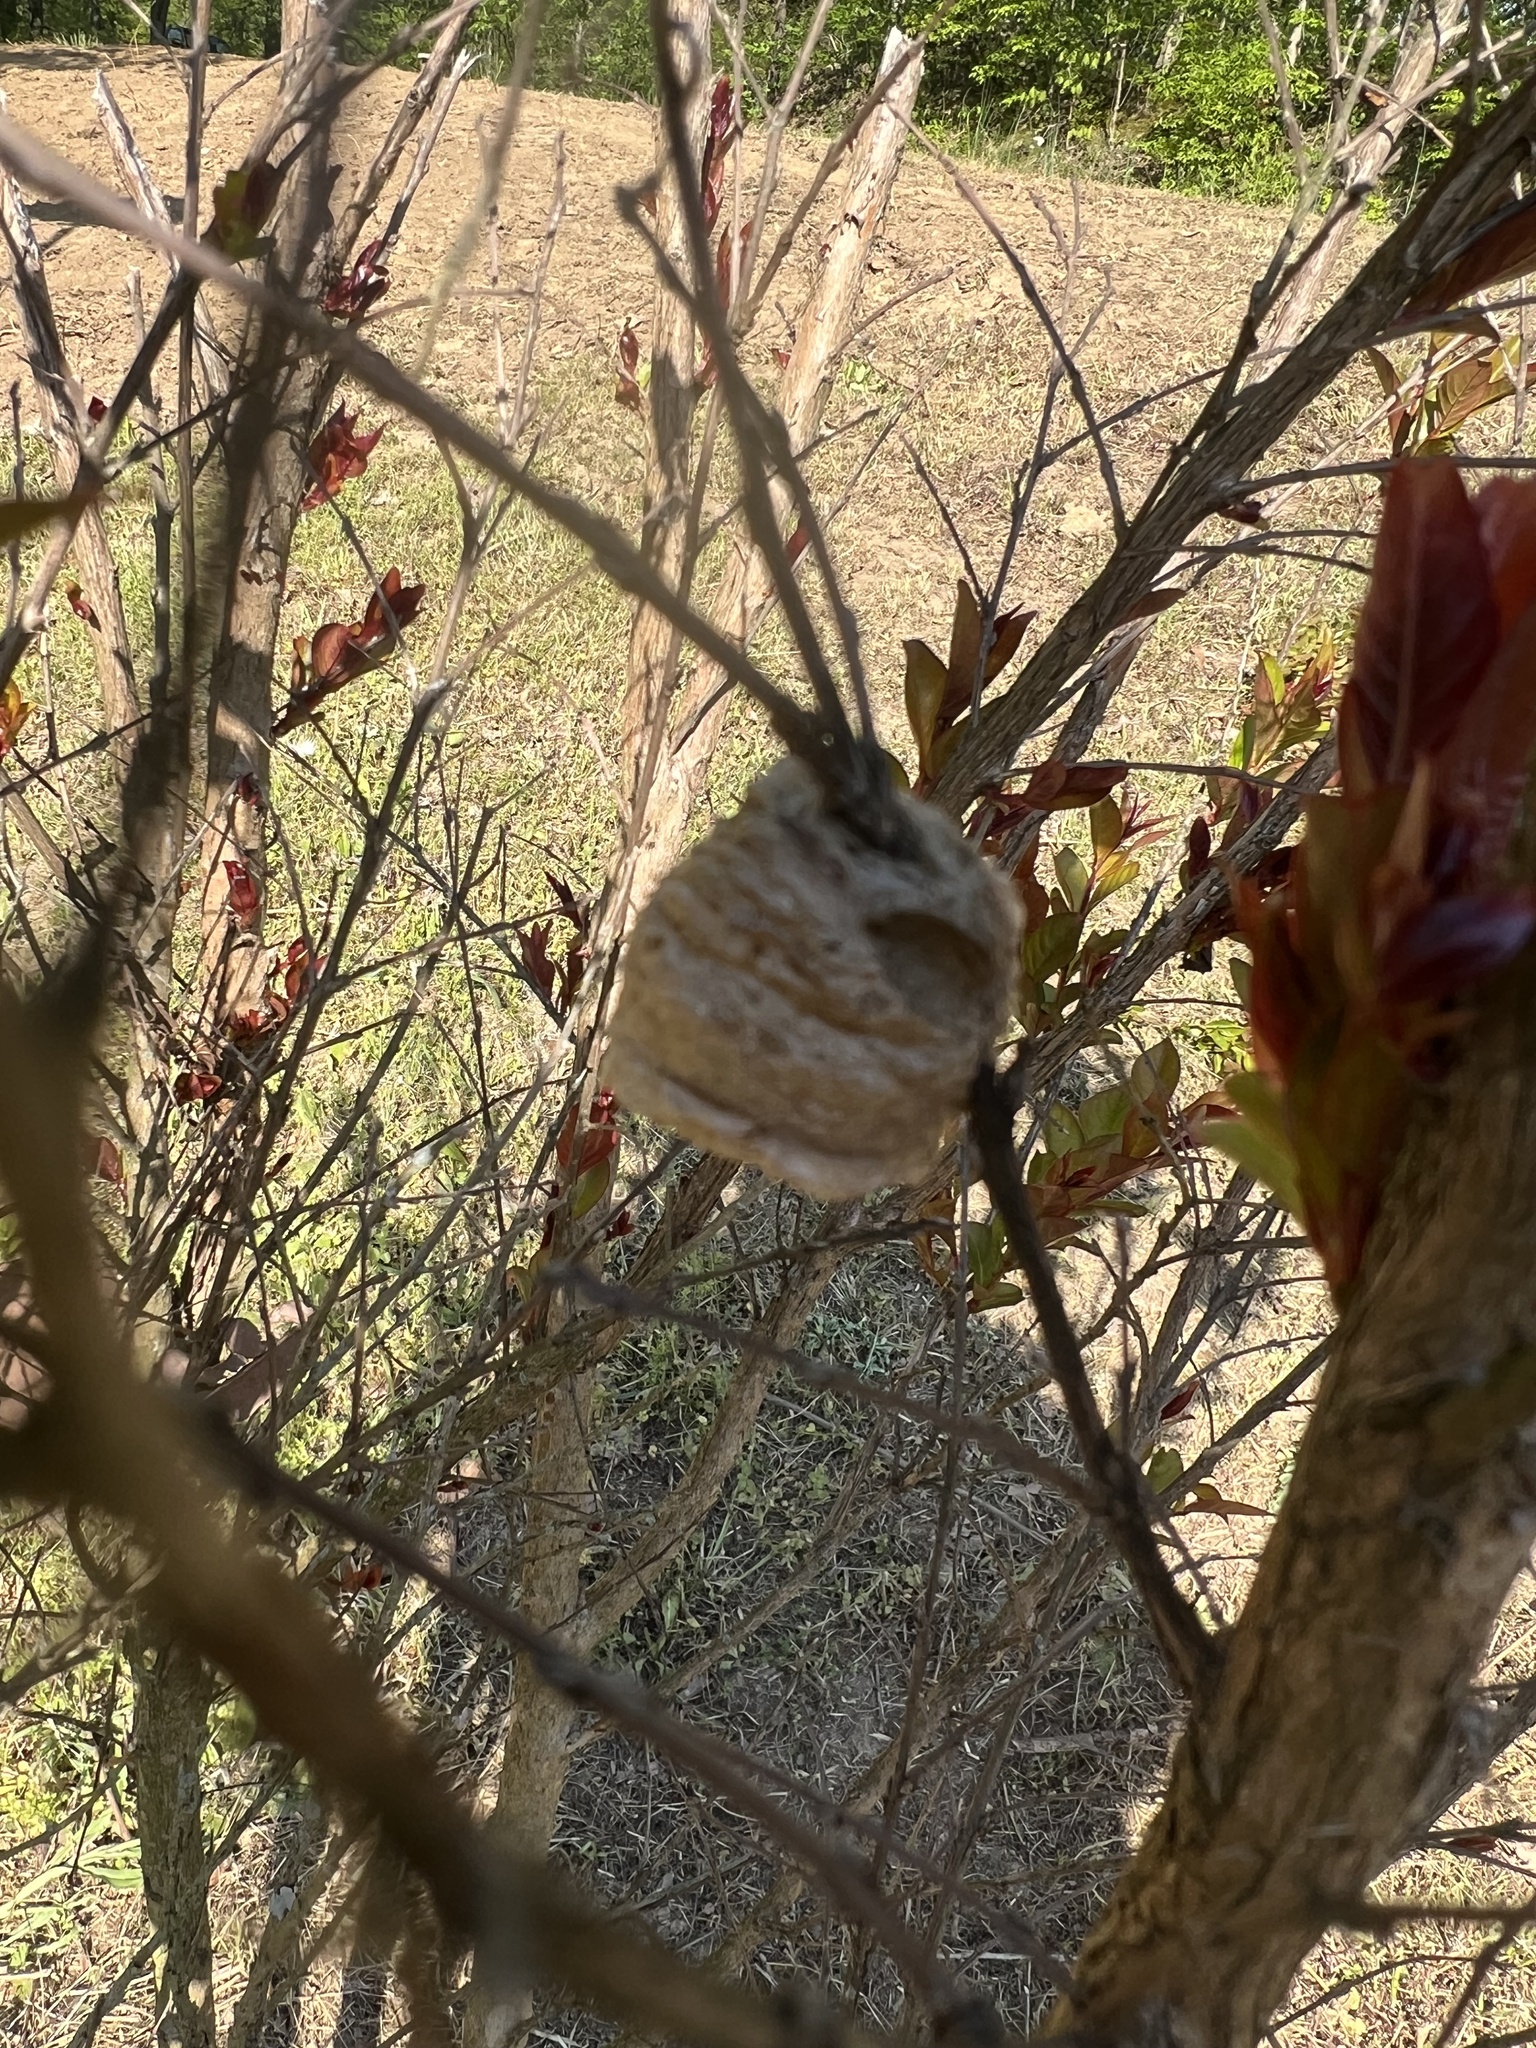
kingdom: Animalia
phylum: Arthropoda
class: Insecta
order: Mantodea
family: Mantidae
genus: Tenodera
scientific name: Tenodera sinensis
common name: Chinese mantis
